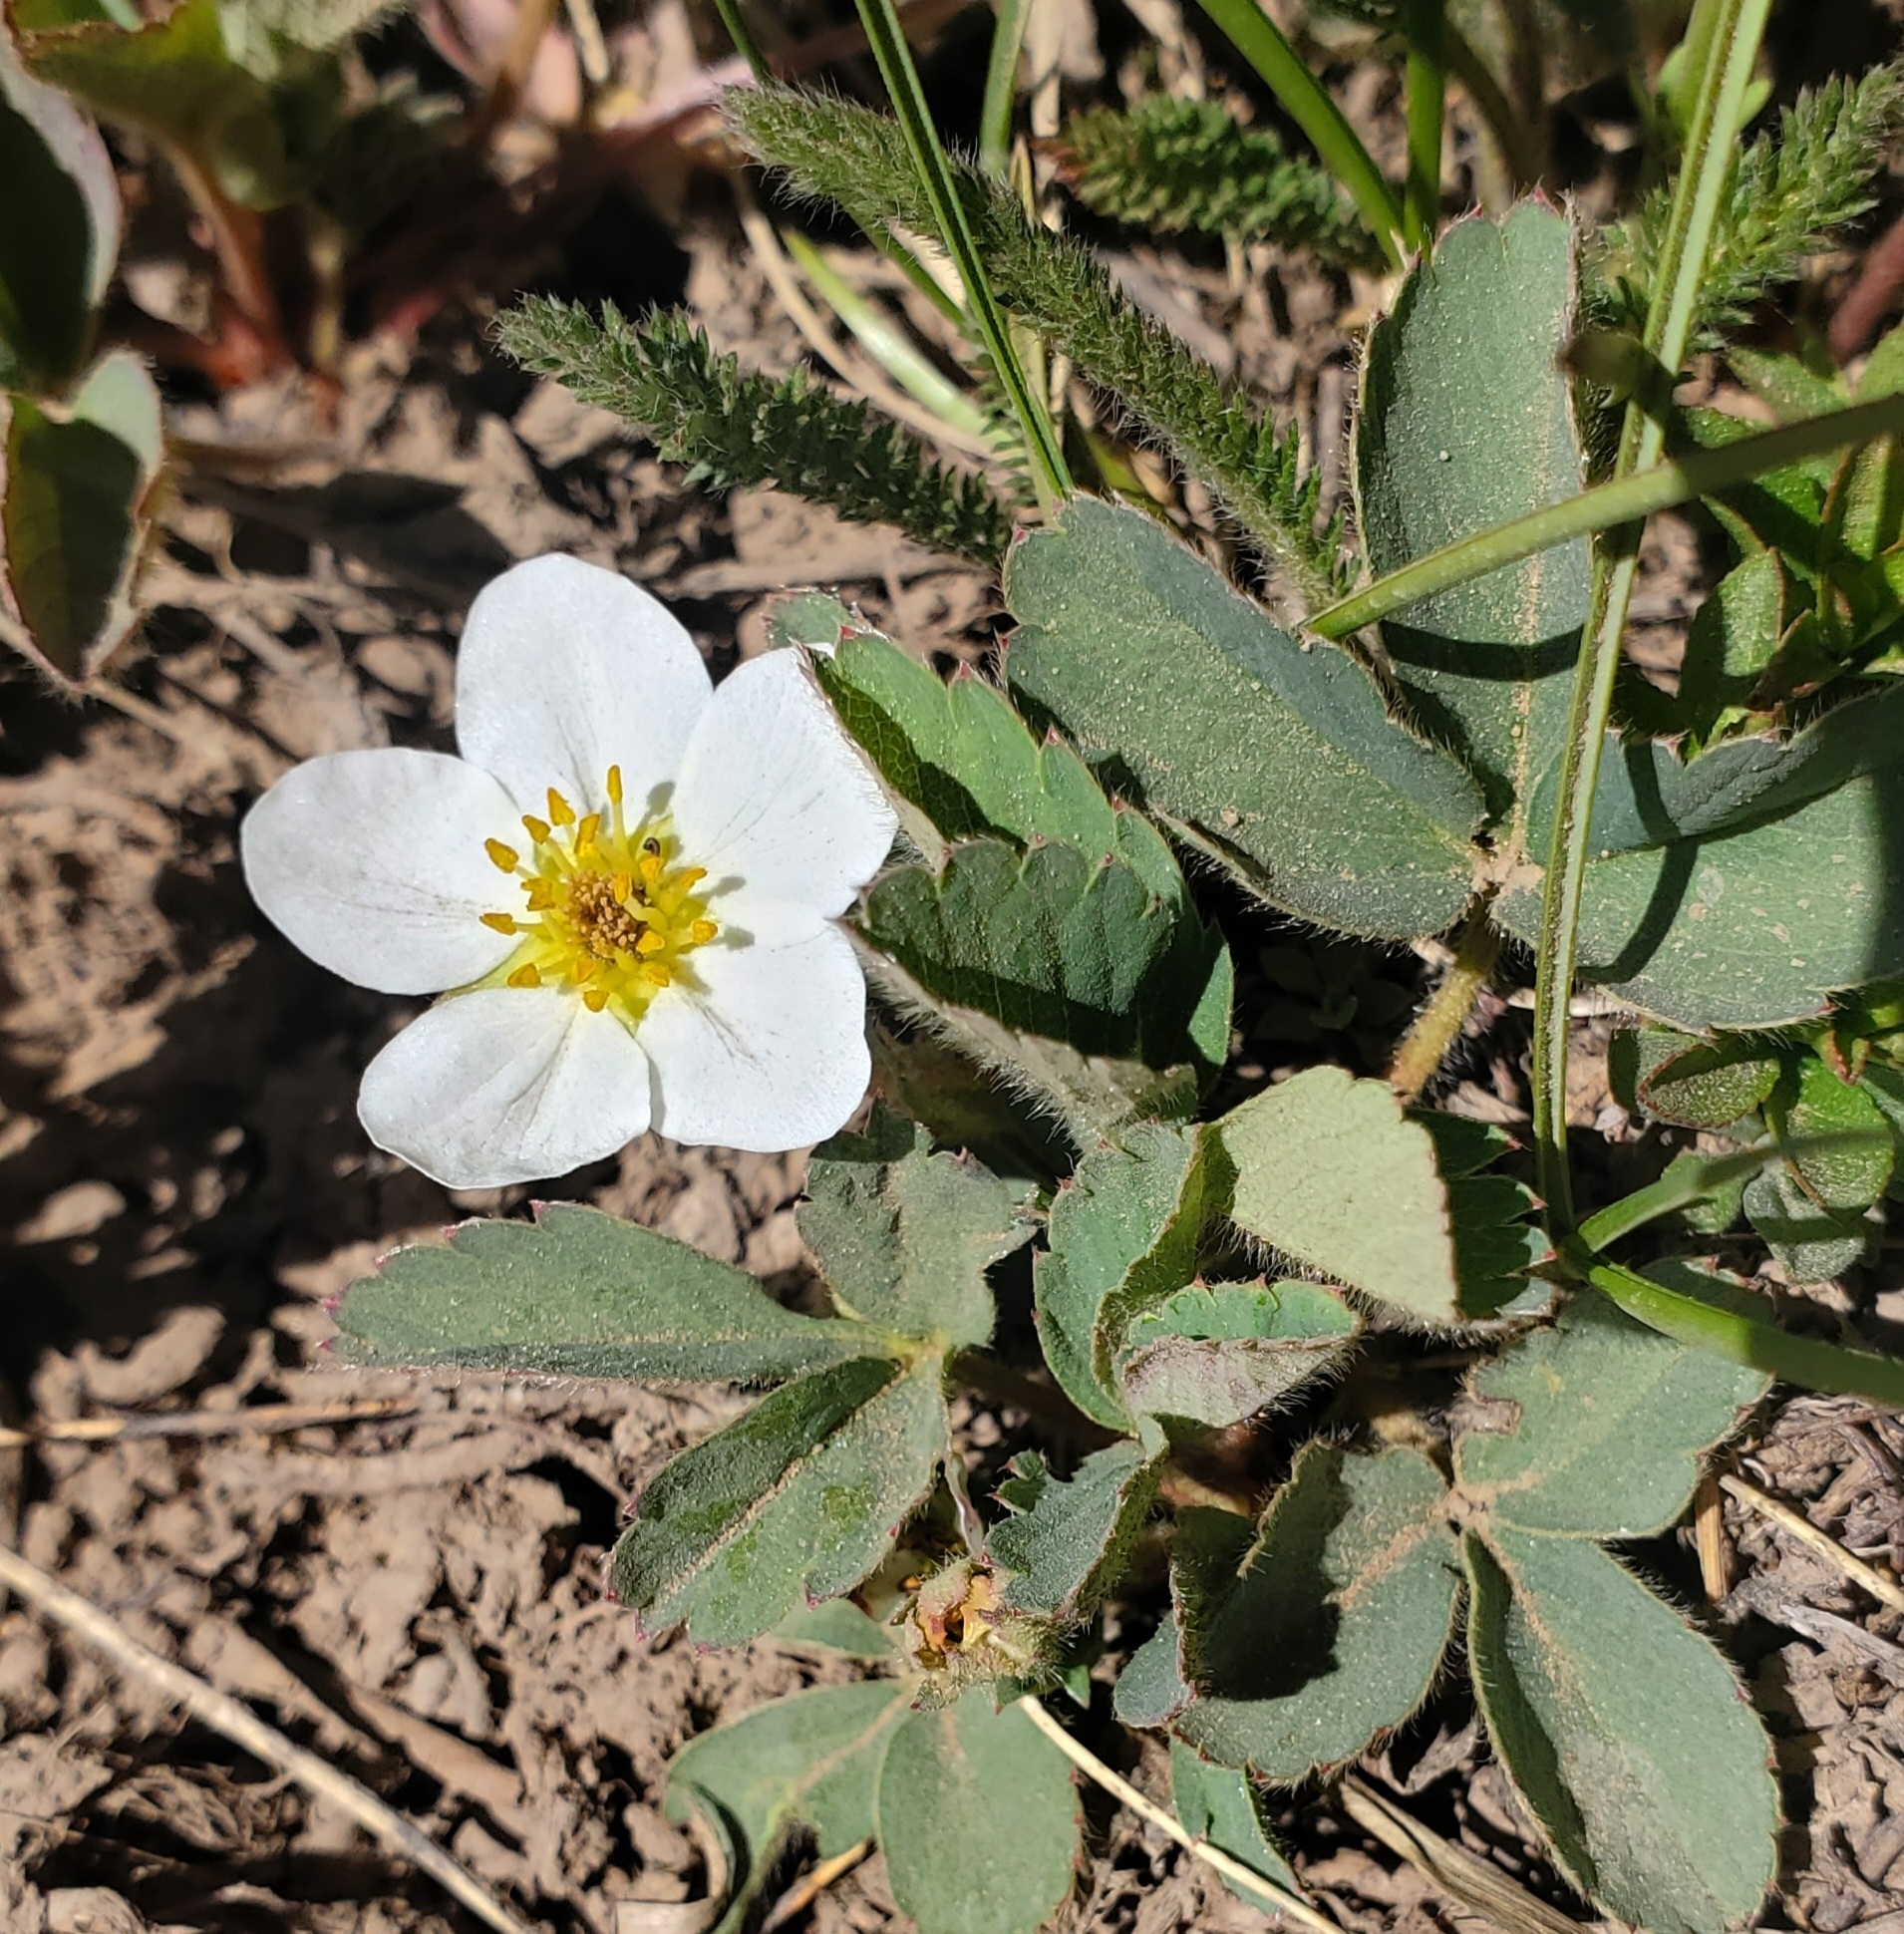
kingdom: Plantae
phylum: Tracheophyta
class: Magnoliopsida
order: Rosales
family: Rosaceae
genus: Fragaria
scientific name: Fragaria virginiana
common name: Thickleaved wild strawberry
